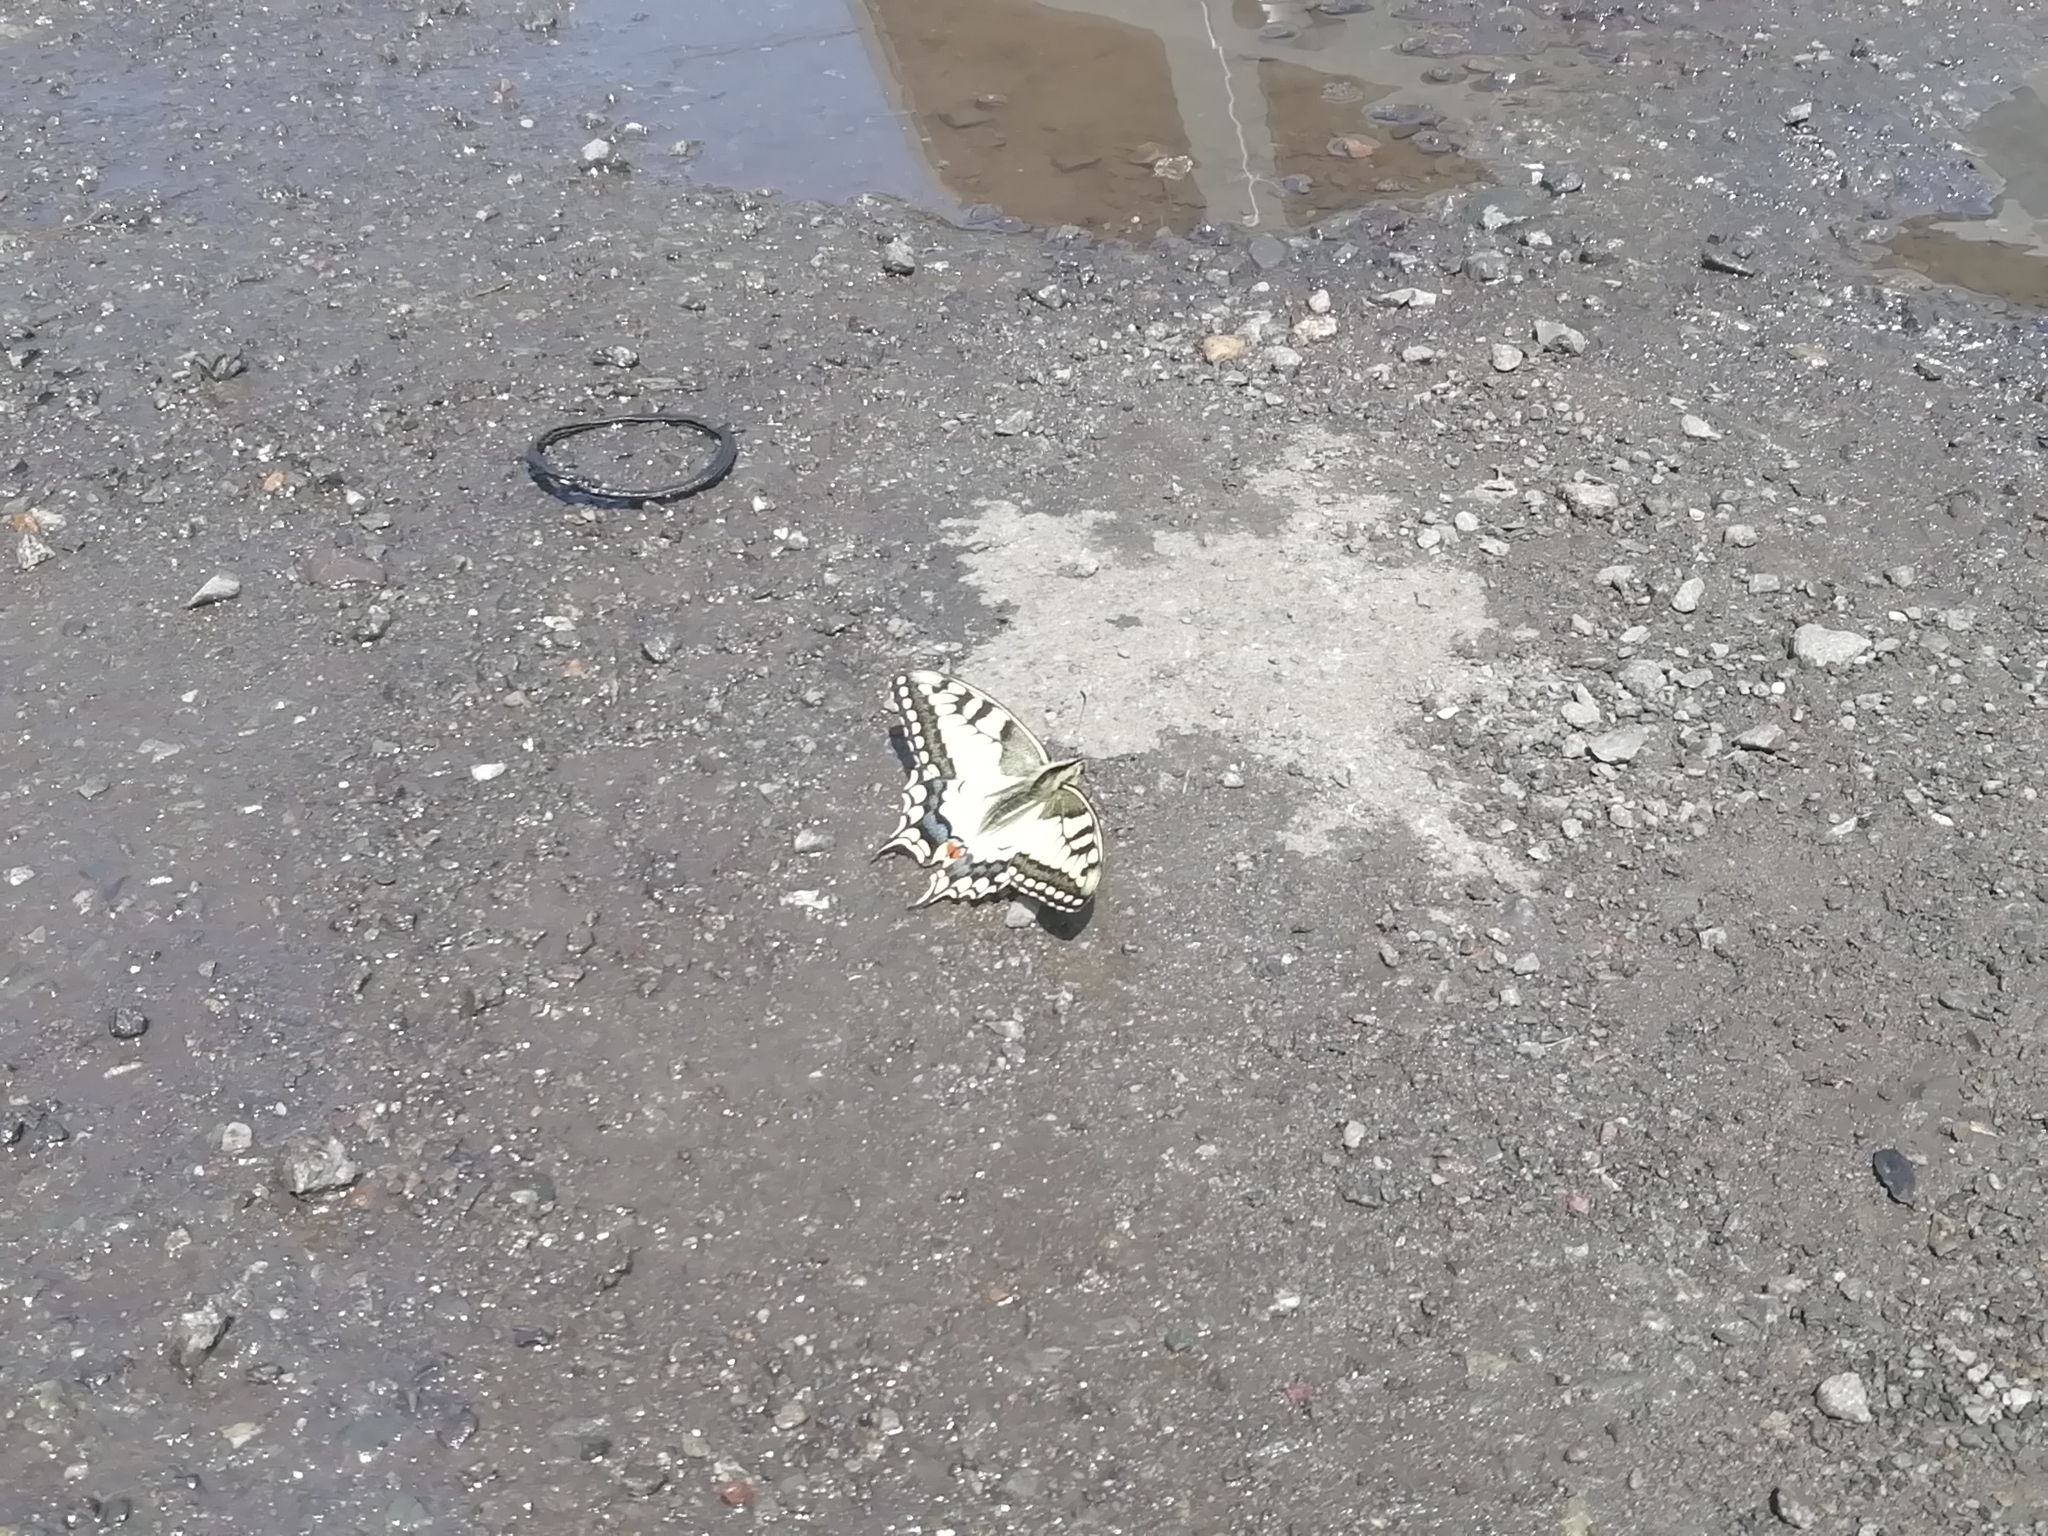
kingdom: Animalia
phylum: Arthropoda
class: Insecta
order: Lepidoptera
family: Papilionidae
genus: Papilio
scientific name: Papilio machaon
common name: Swallowtail
